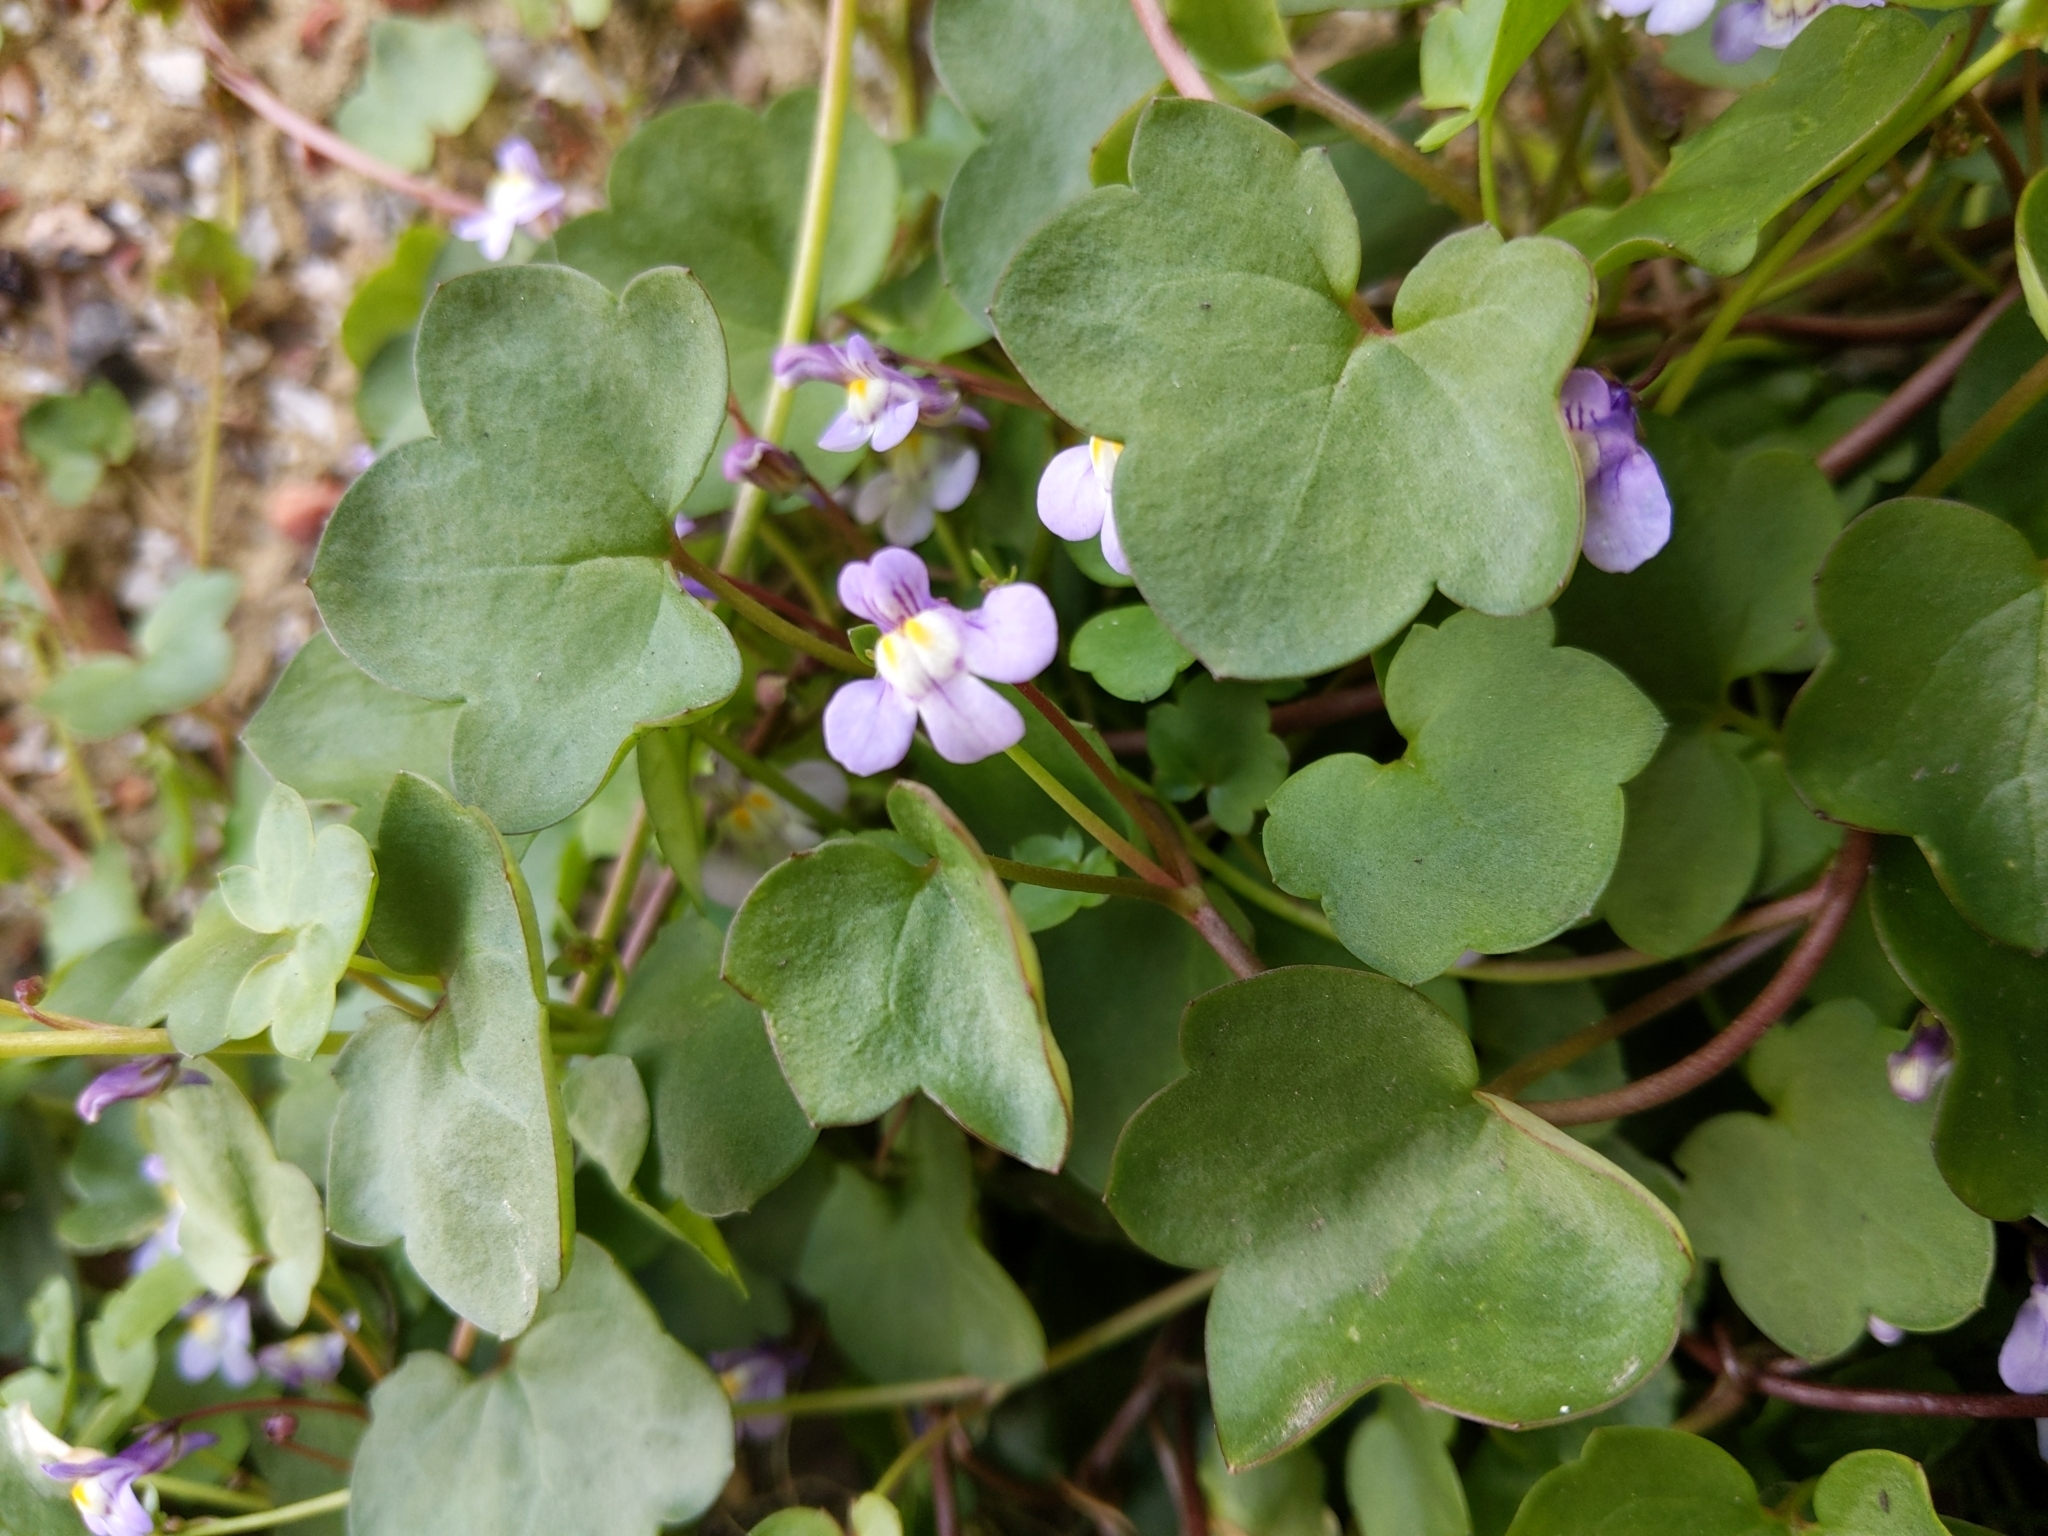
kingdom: Plantae
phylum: Tracheophyta
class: Magnoliopsida
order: Lamiales
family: Plantaginaceae
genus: Cymbalaria
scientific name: Cymbalaria muralis
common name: Ivy-leaved toadflax
